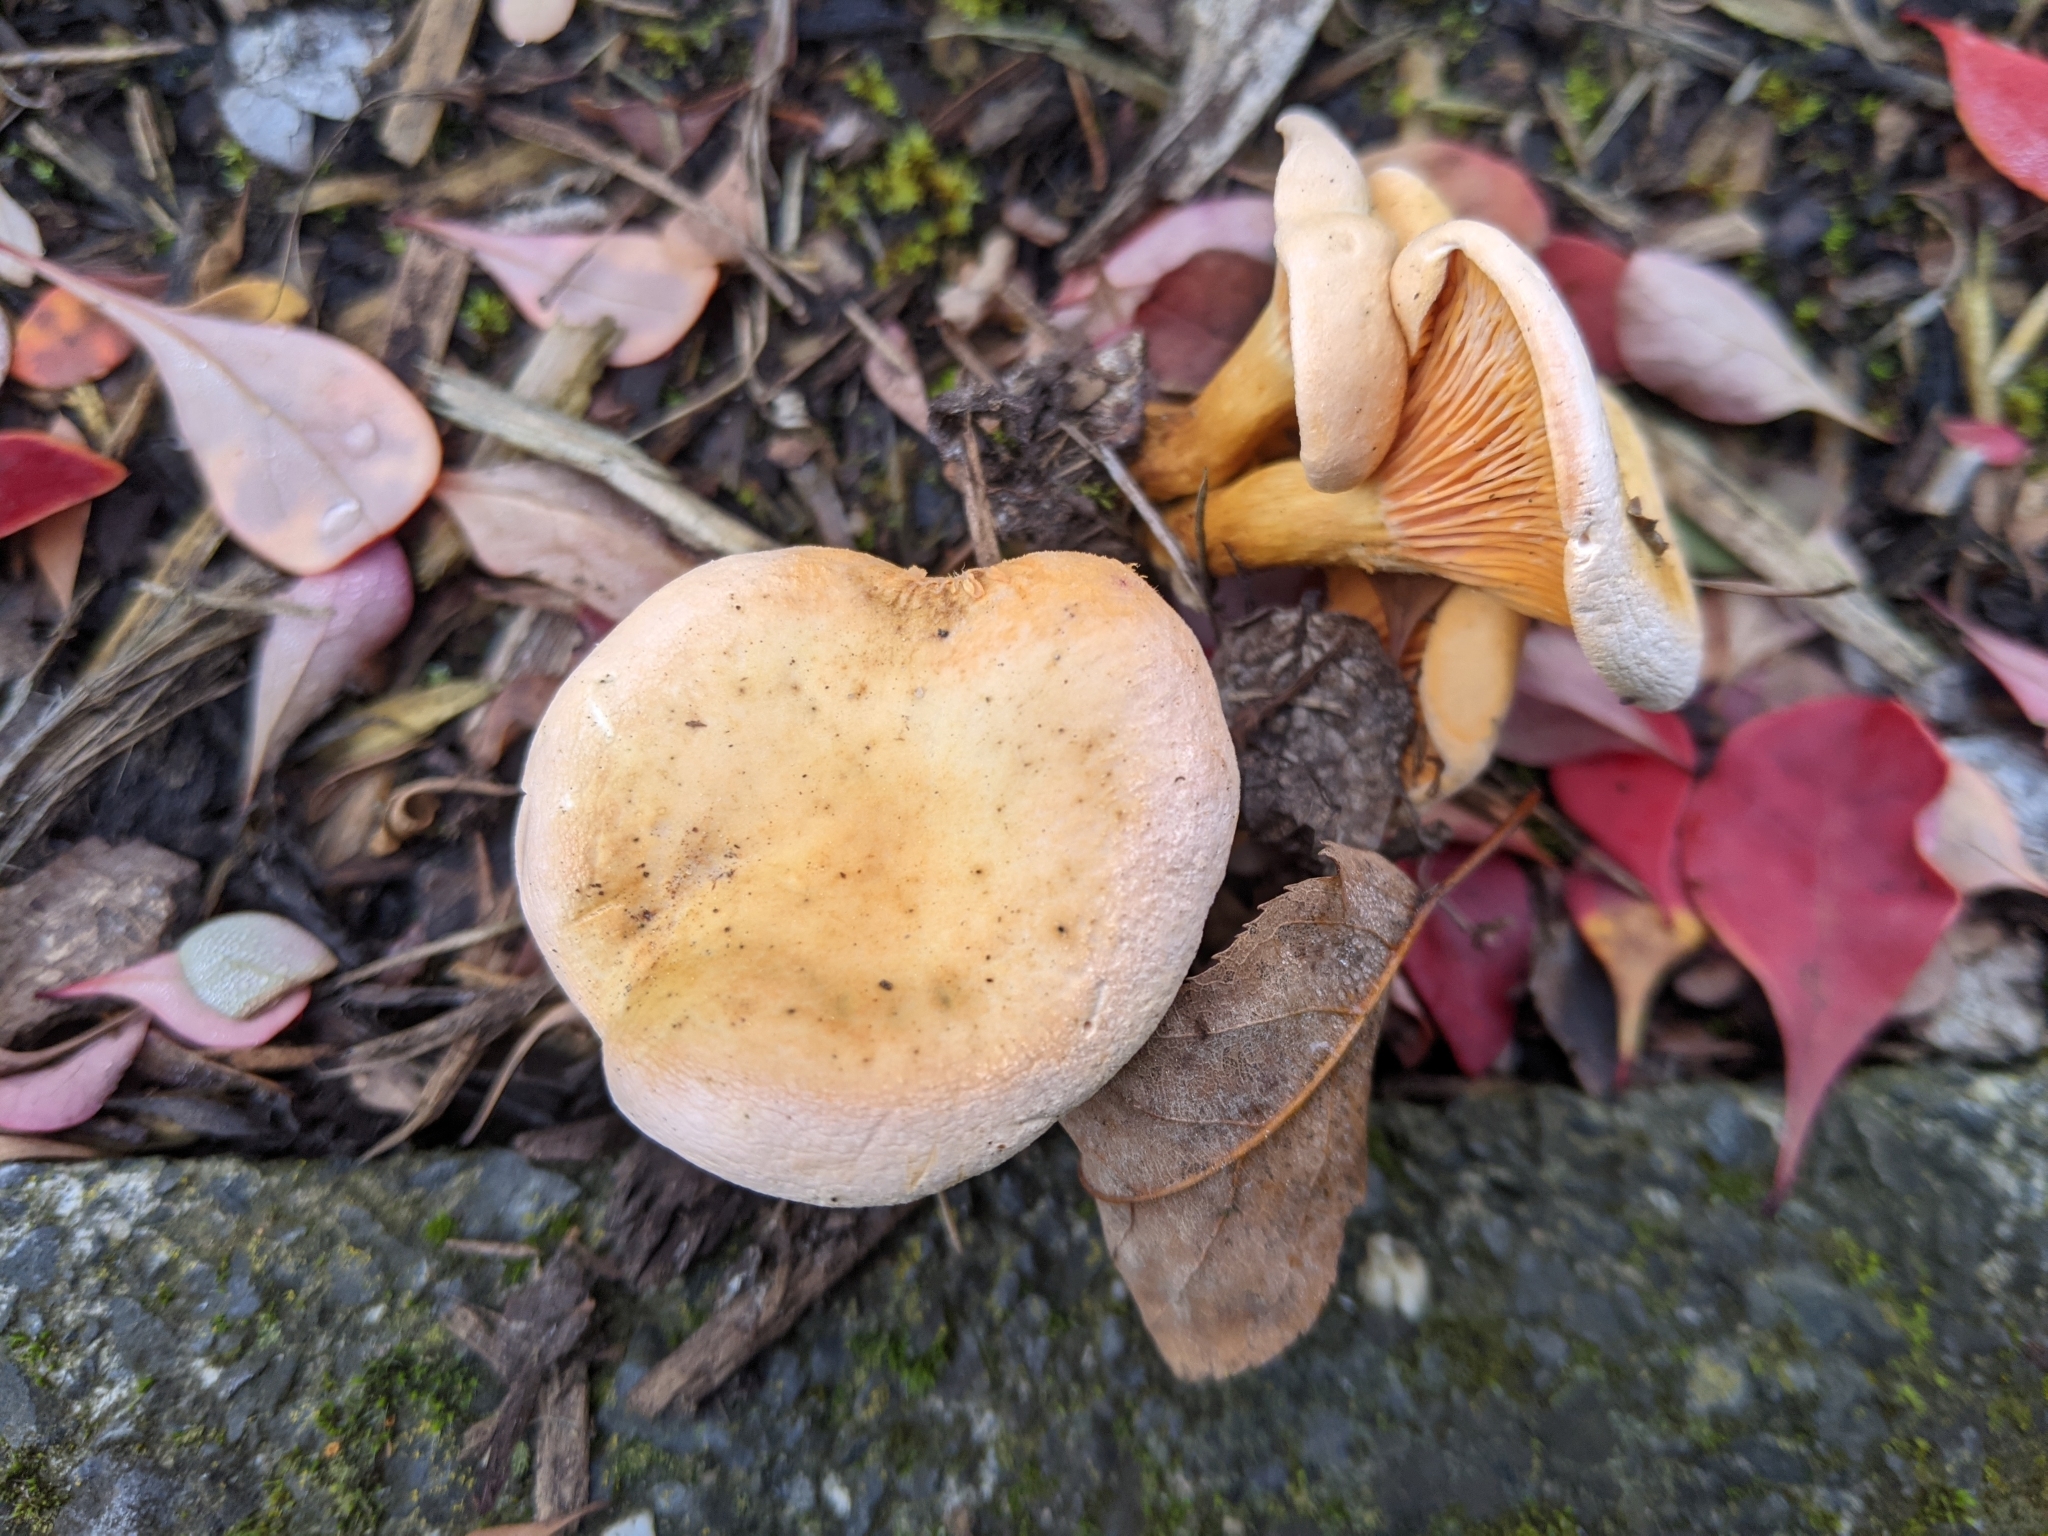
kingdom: Fungi
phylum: Basidiomycota
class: Agaricomycetes
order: Boletales
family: Hygrophoropsidaceae
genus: Hygrophoropsis
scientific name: Hygrophoropsis aurantiaca
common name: False chanterelle
